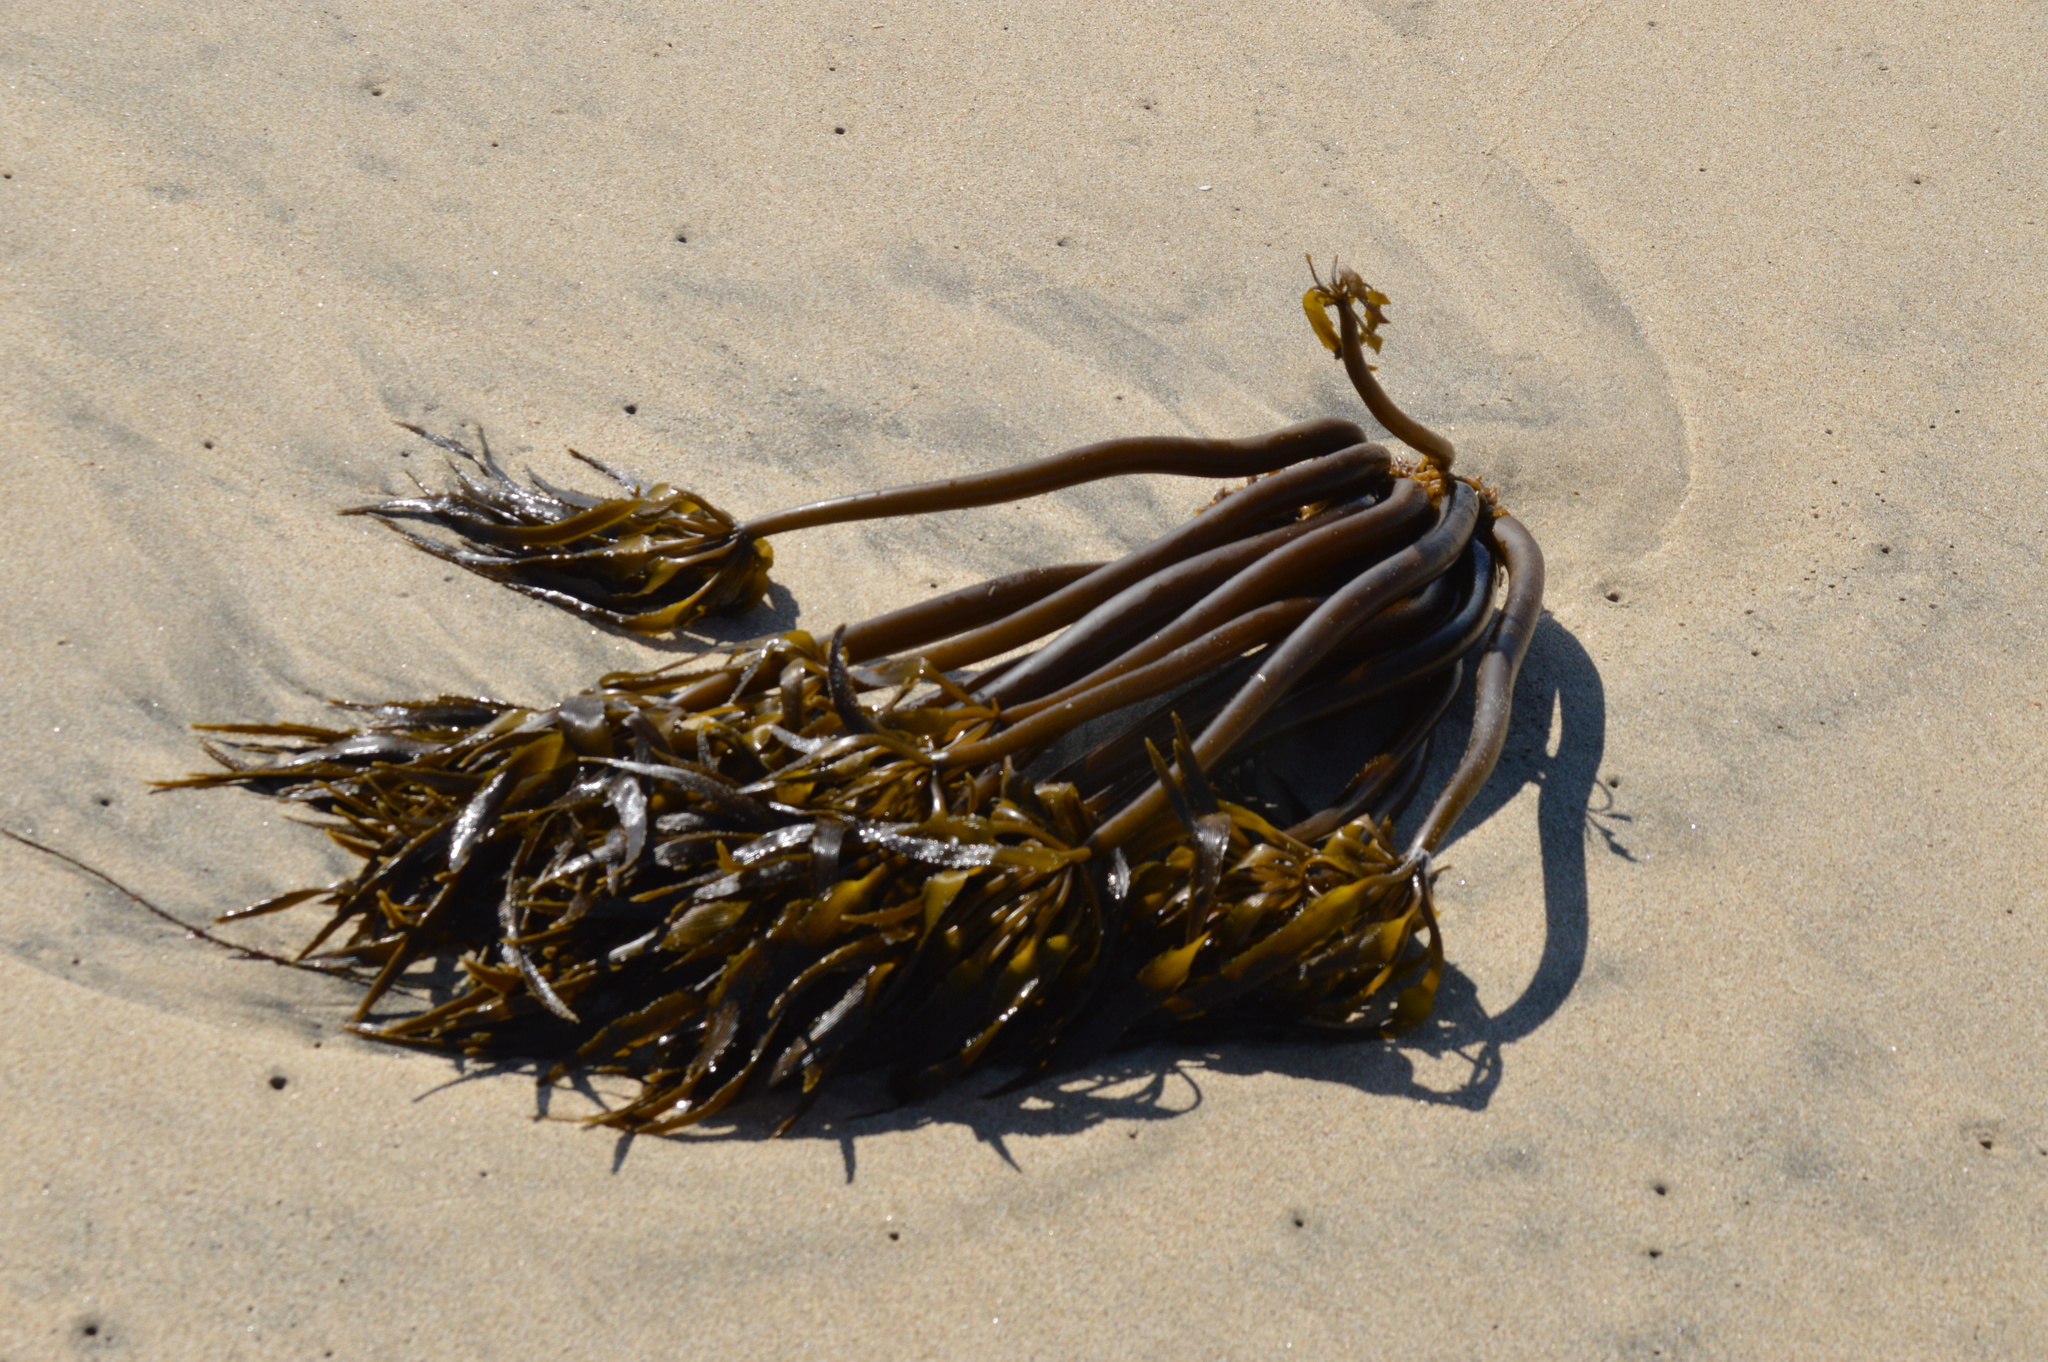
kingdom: Chromista
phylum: Ochrophyta
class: Phaeophyceae
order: Laminariales
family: Laminariaceae
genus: Postelsia
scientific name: Postelsia palmiformis
